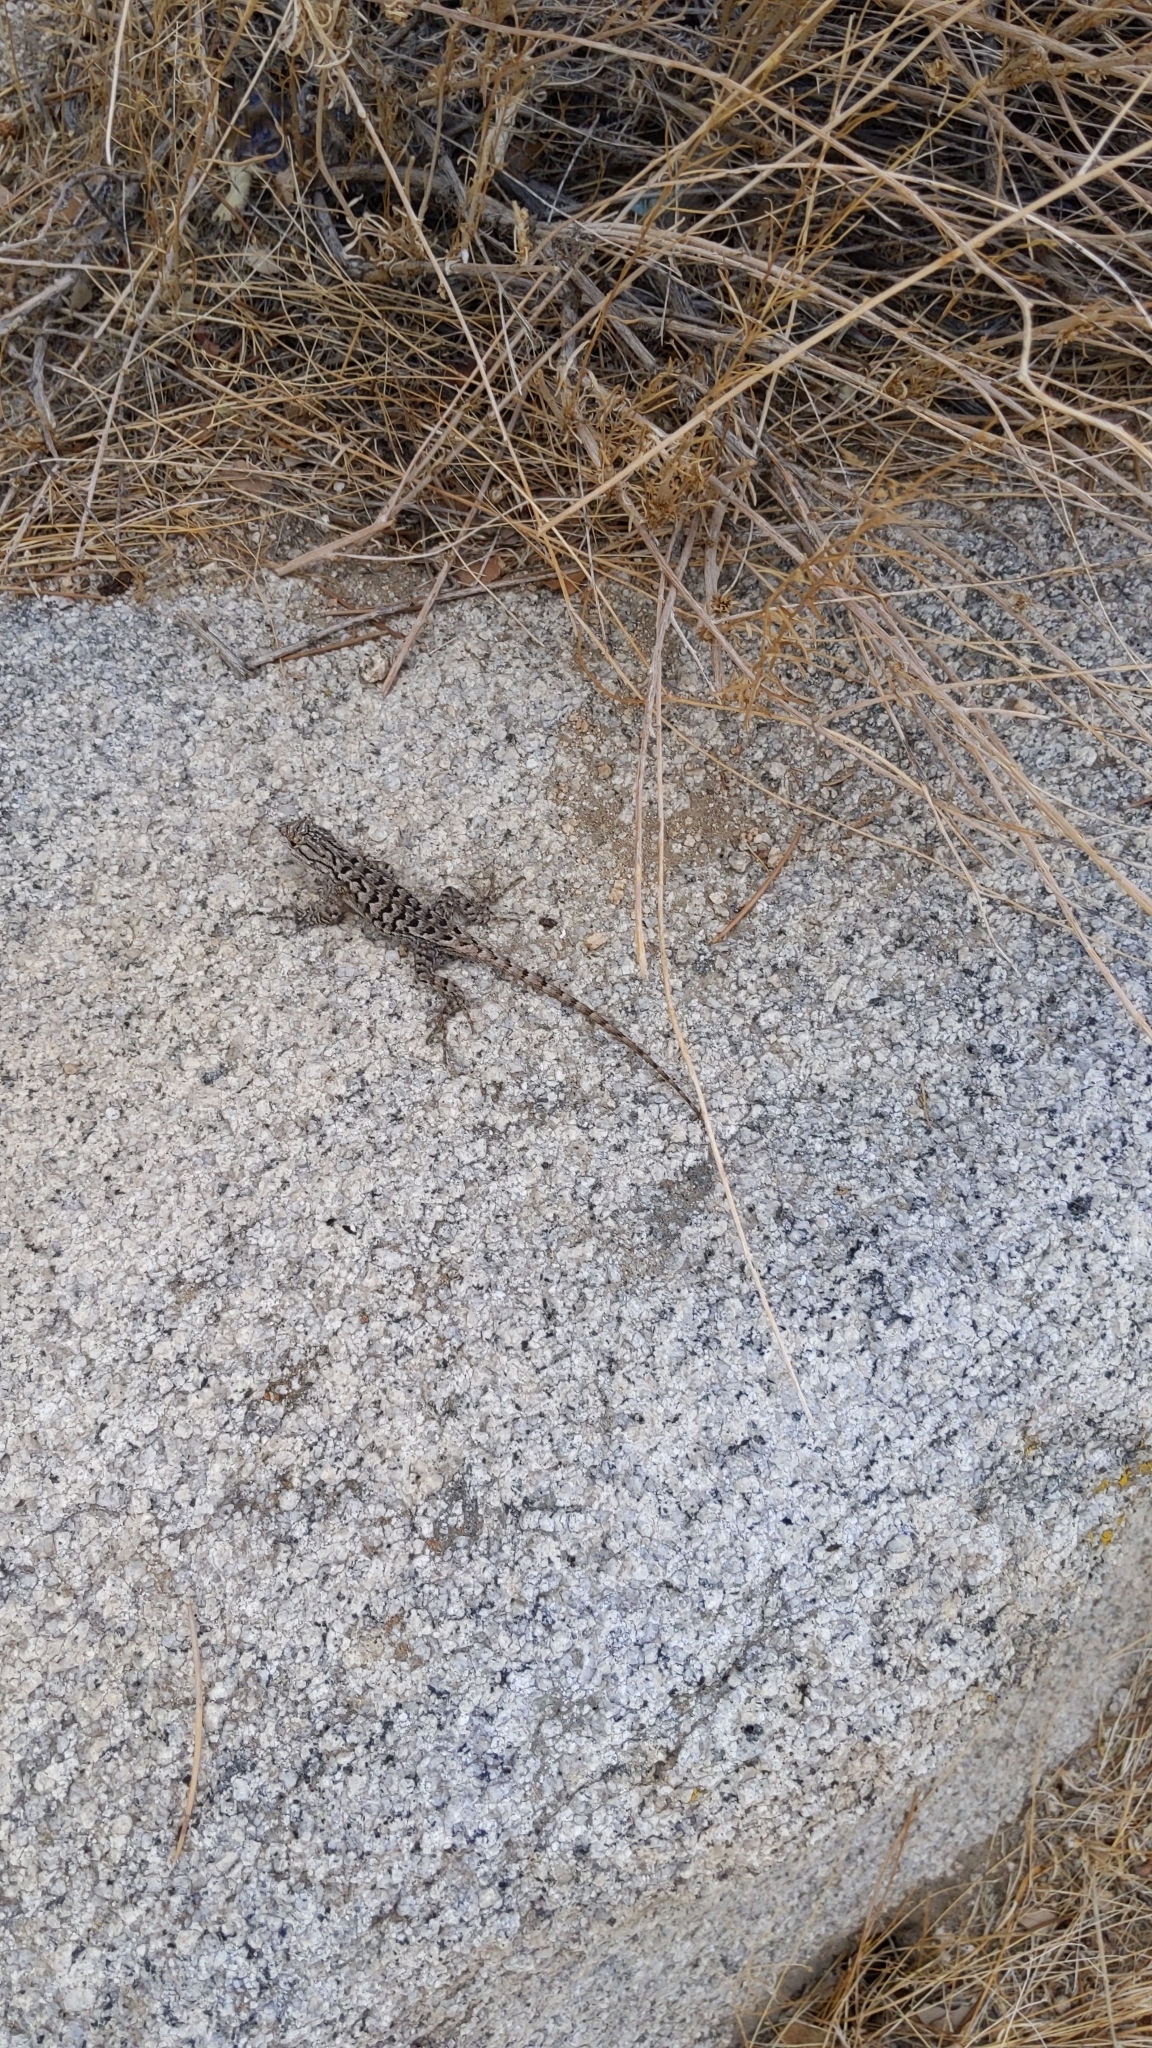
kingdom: Animalia
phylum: Chordata
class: Squamata
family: Phrynosomatidae
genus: Sceloporus
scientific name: Sceloporus occidentalis
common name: Western fence lizard
